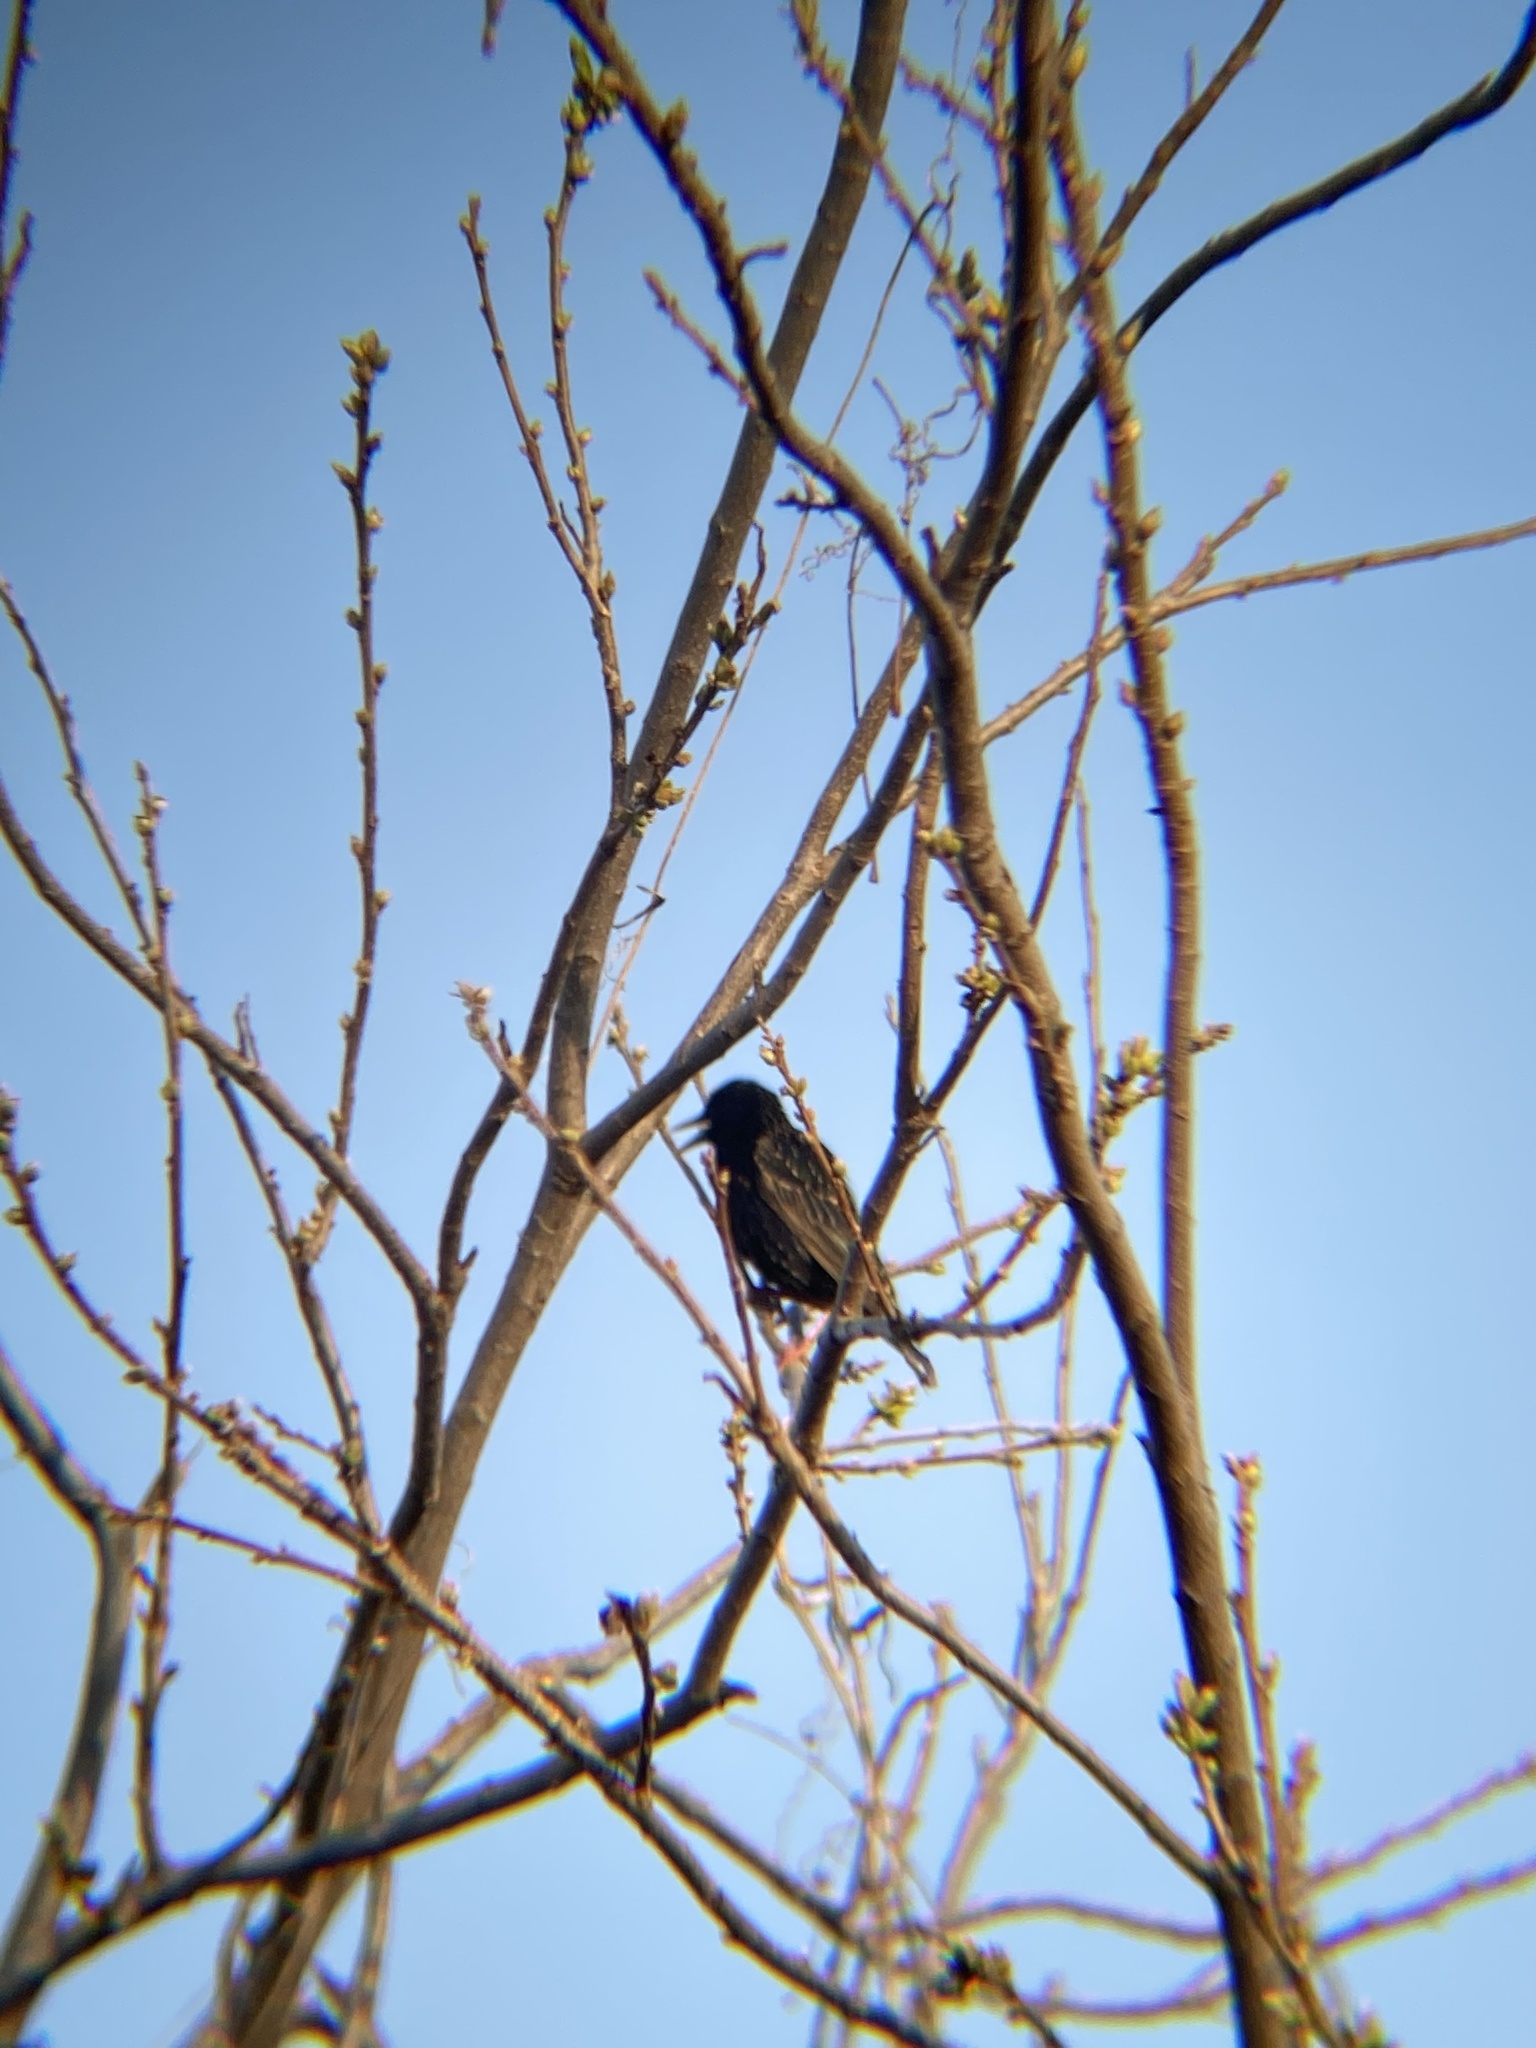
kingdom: Animalia
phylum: Chordata
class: Aves
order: Passeriformes
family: Sturnidae
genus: Sturnus
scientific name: Sturnus vulgaris
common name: Common starling
